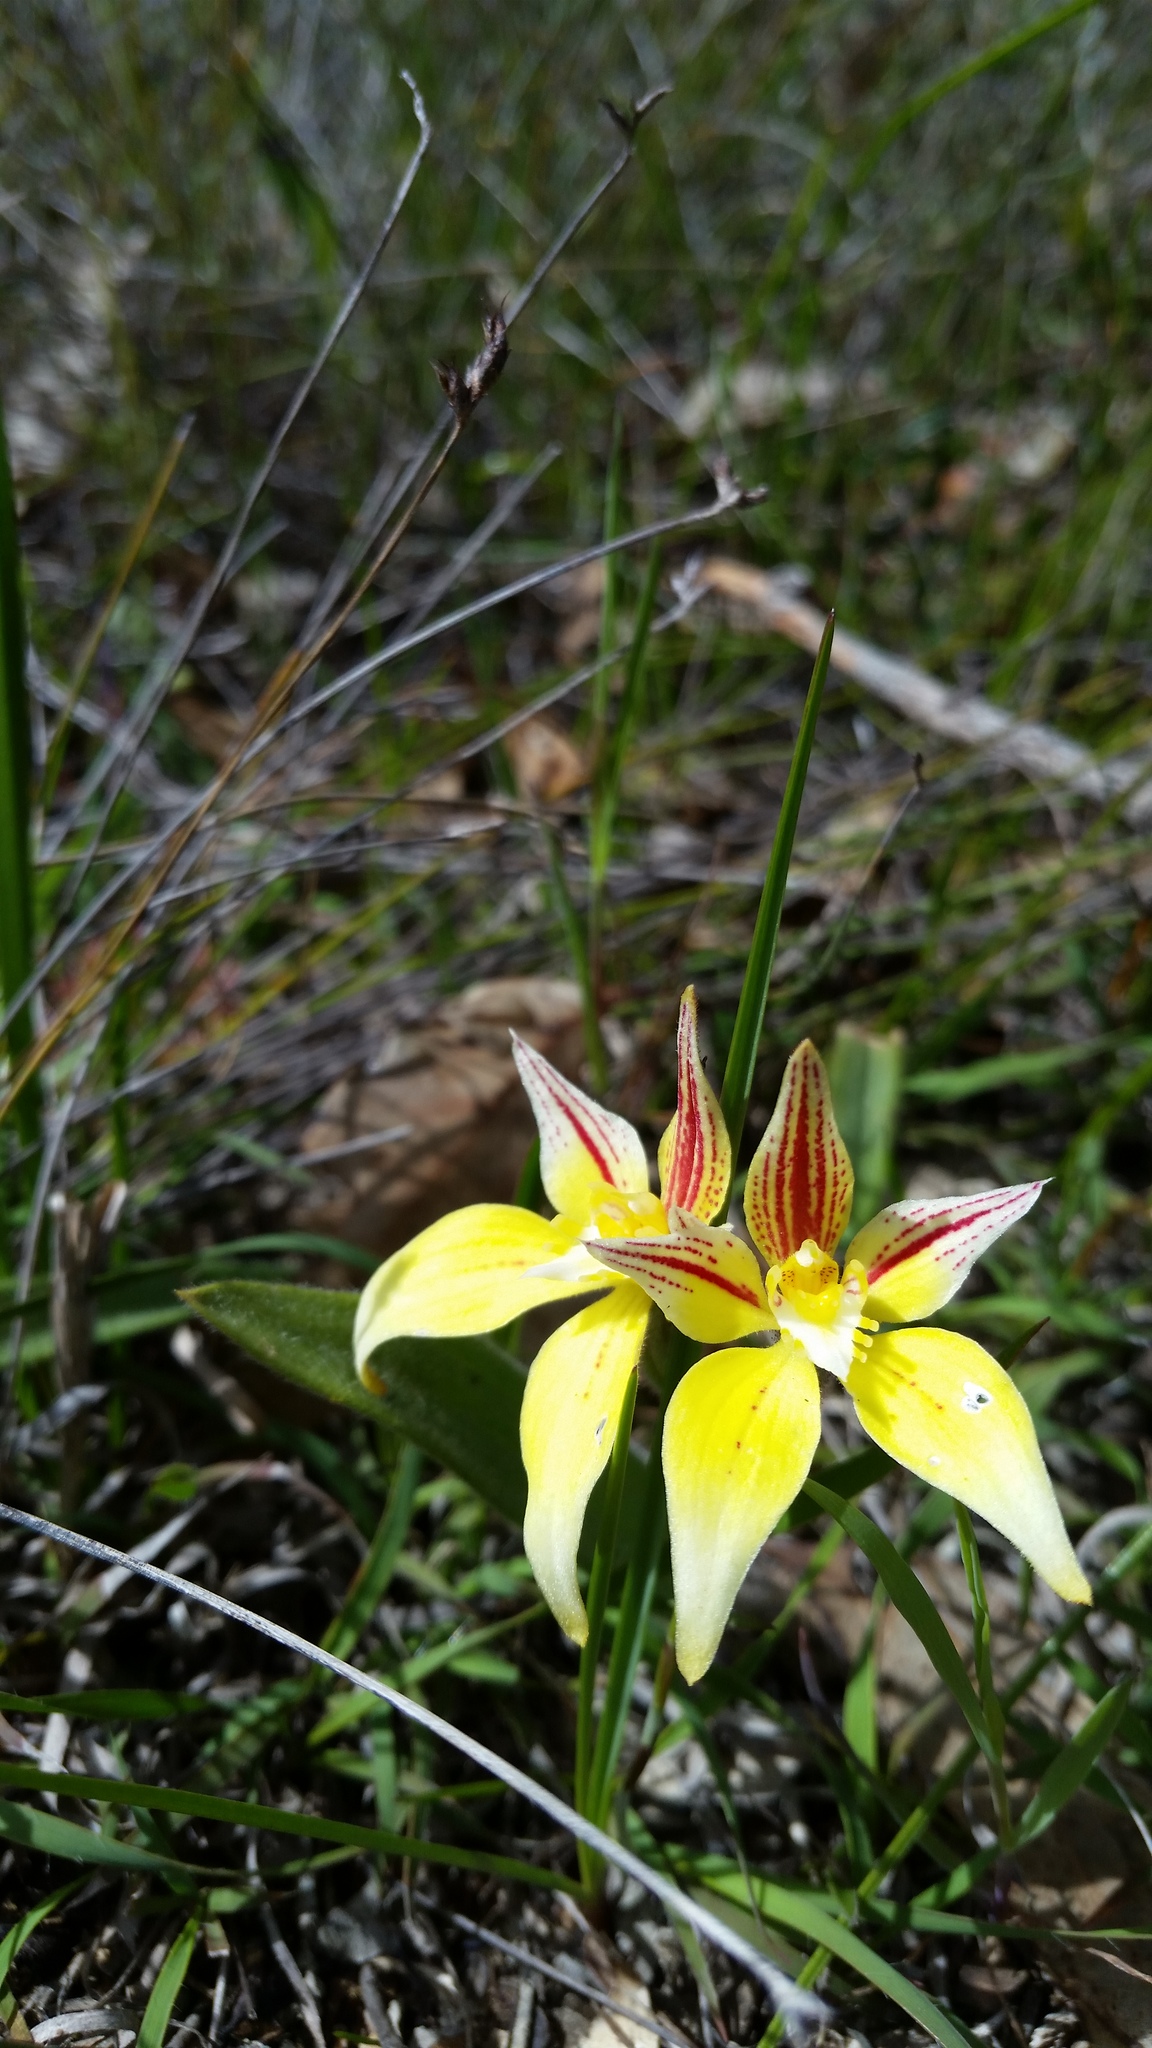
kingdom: Plantae
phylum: Tracheophyta
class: Liliopsida
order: Asparagales
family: Orchidaceae
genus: Caladenia
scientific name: Caladenia flava
